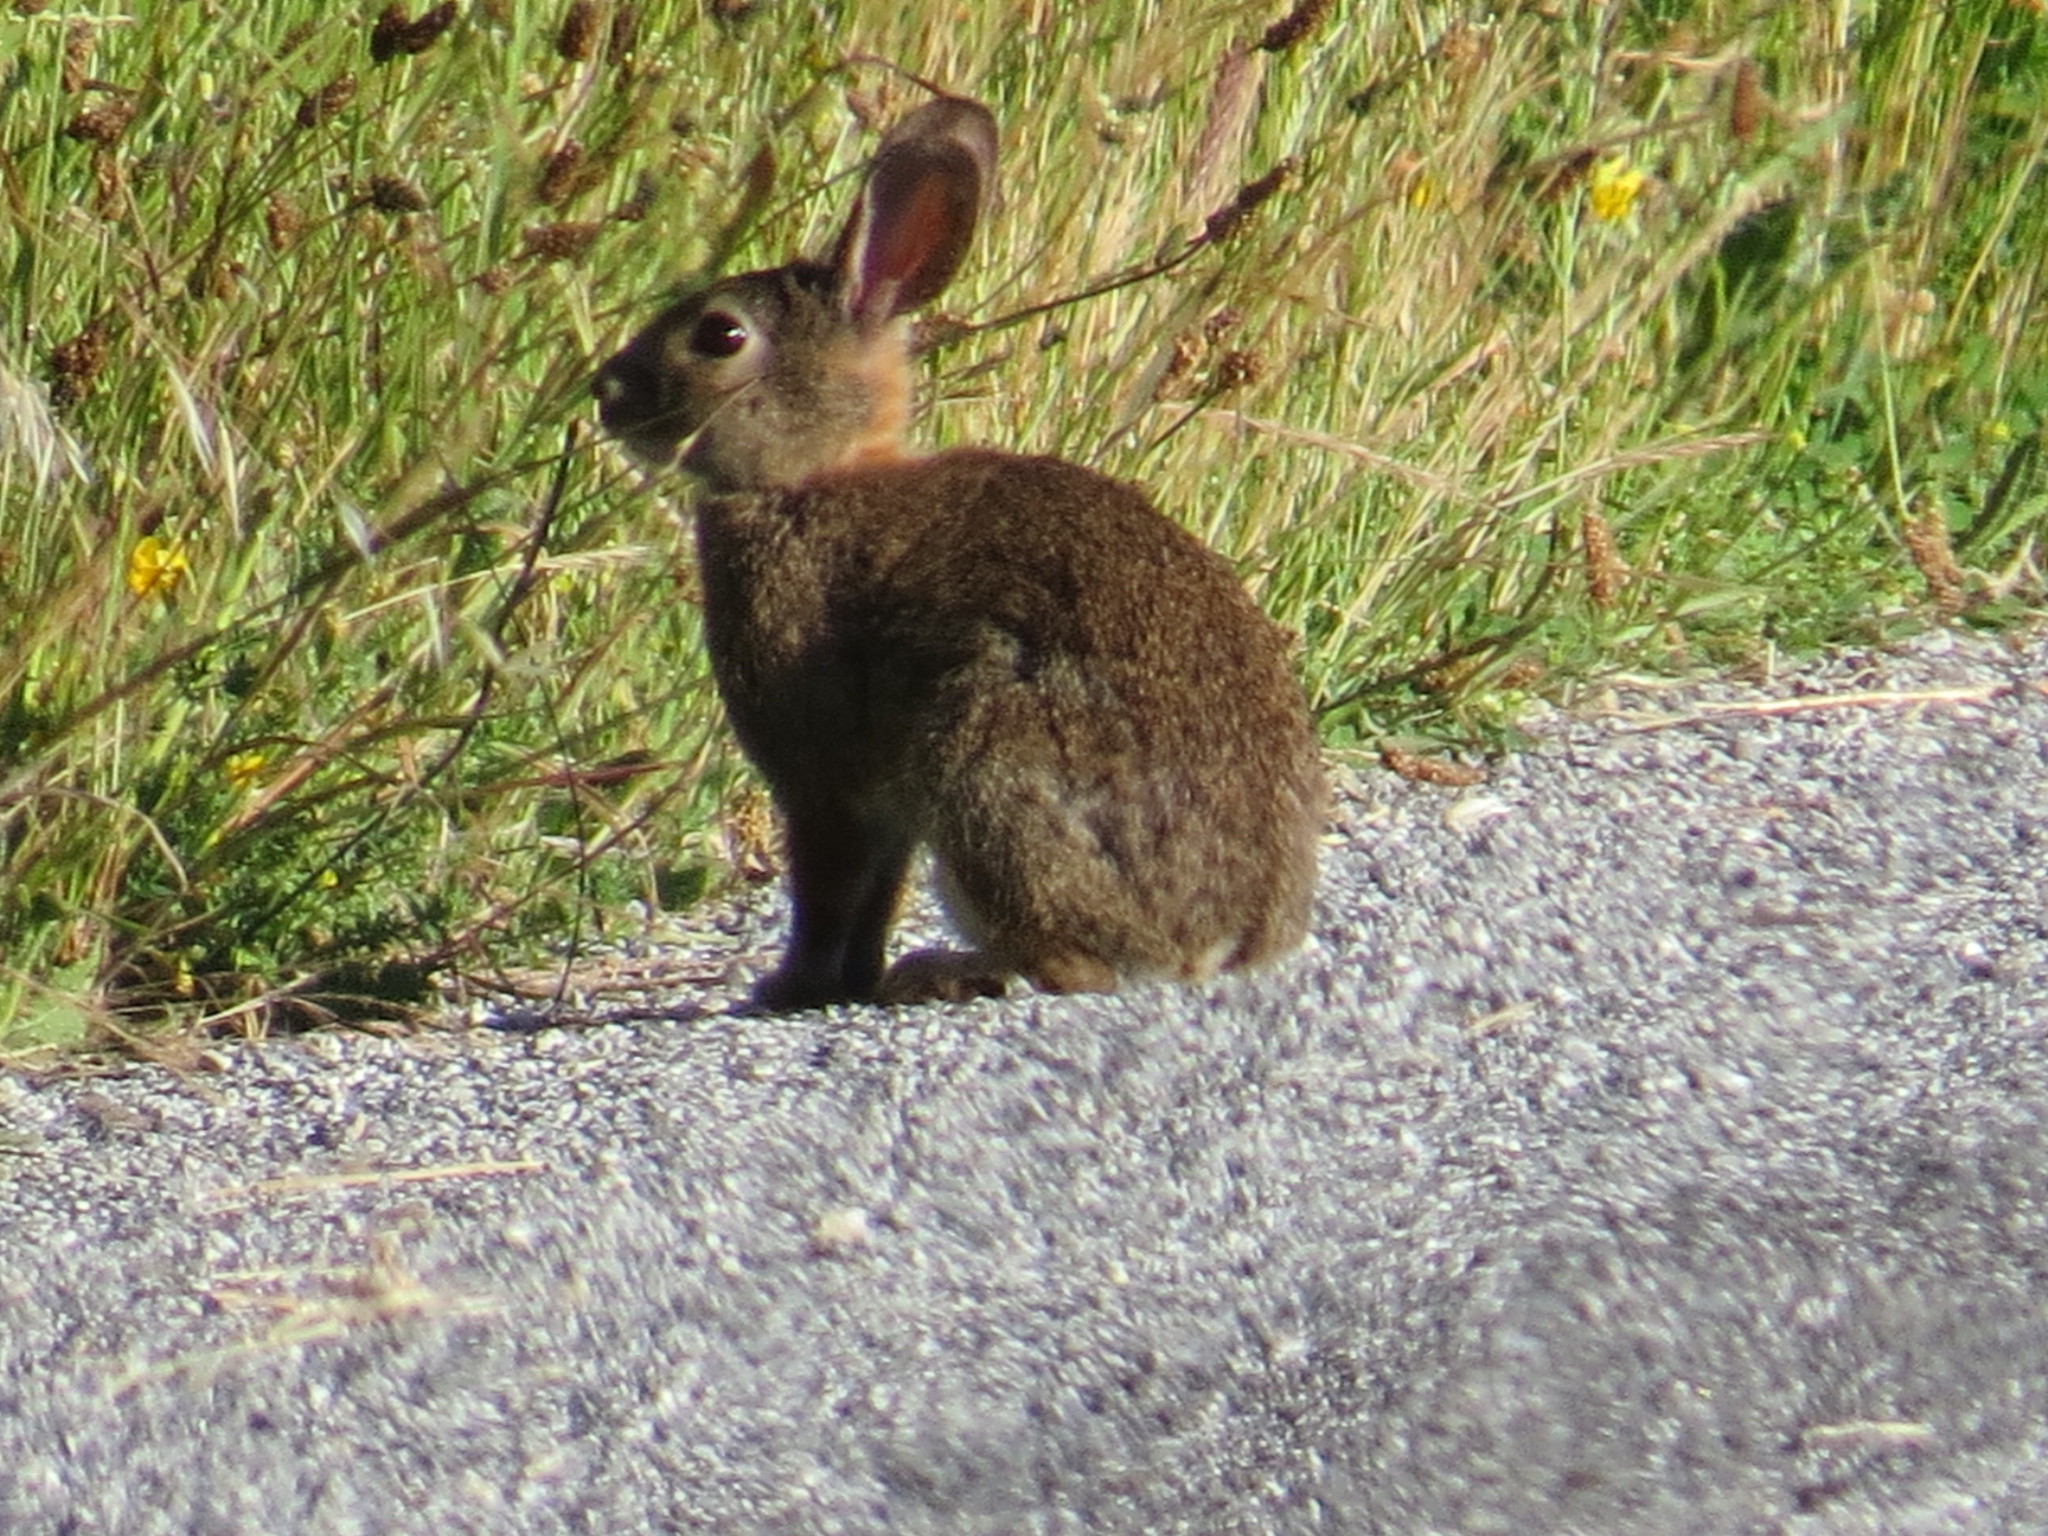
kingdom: Animalia
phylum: Chordata
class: Mammalia
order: Lagomorpha
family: Leporidae
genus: Sylvilagus
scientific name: Sylvilagus bachmani
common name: Brush rabbit
